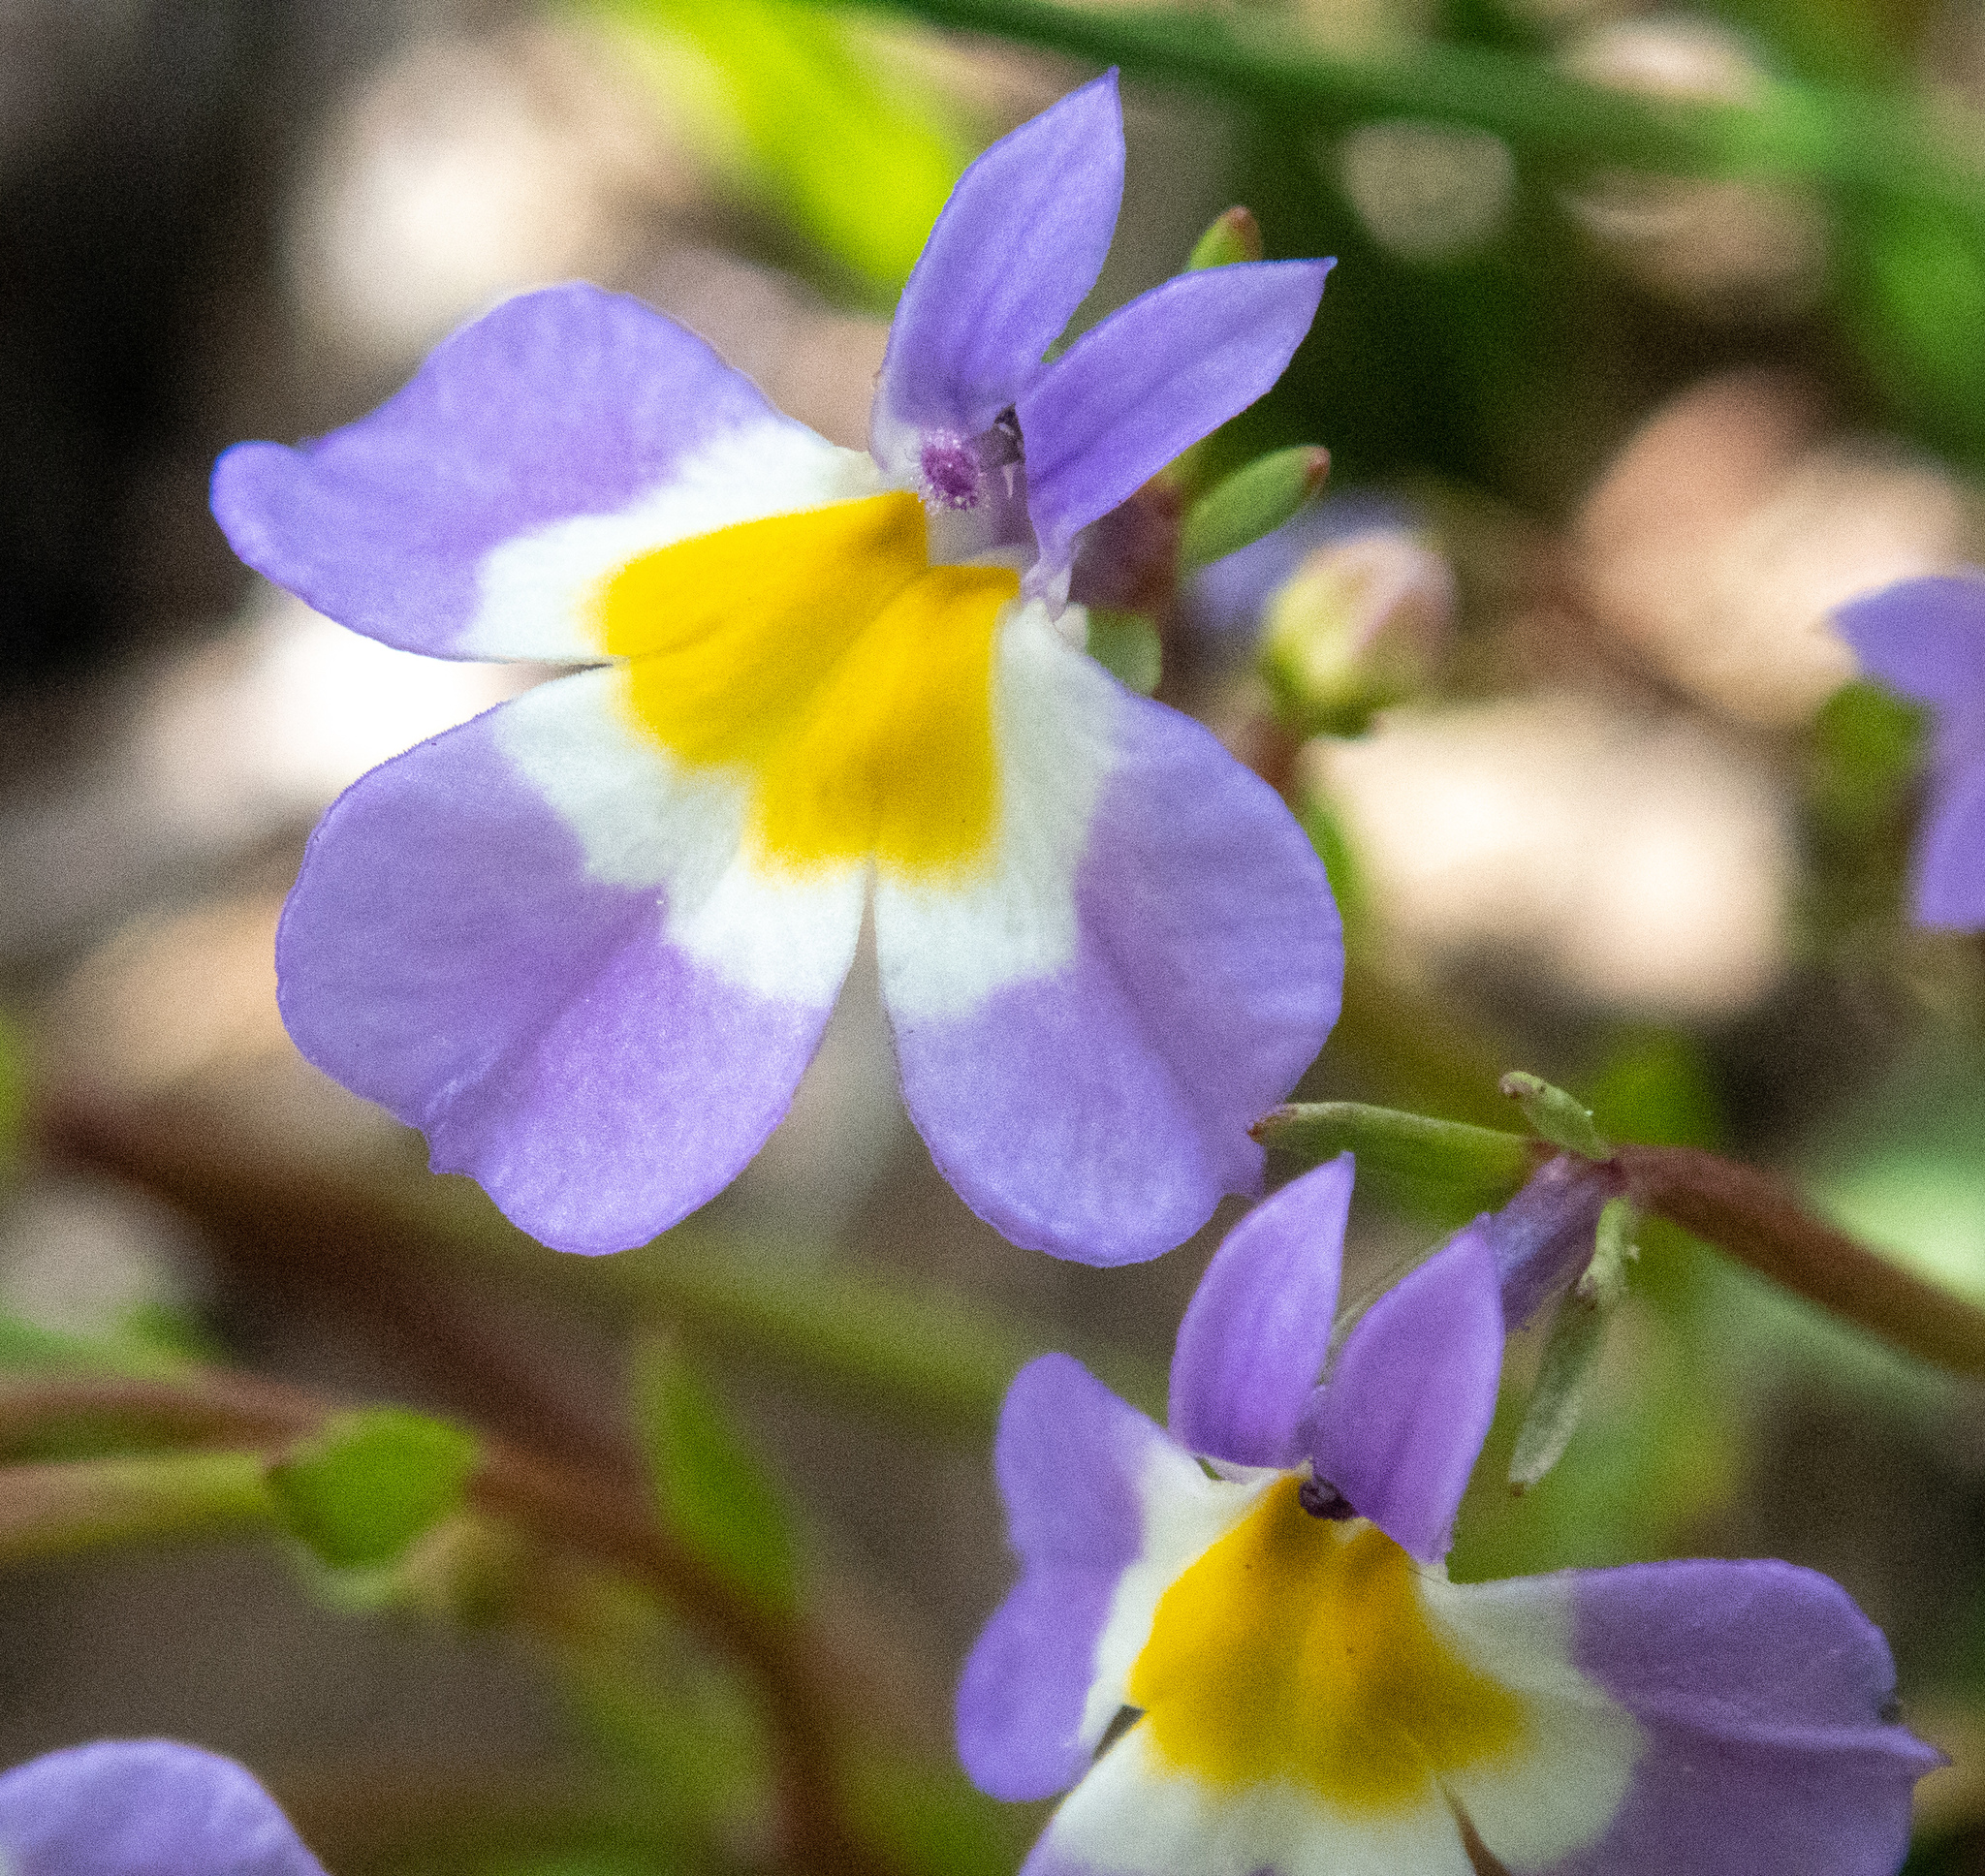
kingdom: Plantae
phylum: Tracheophyta
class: Magnoliopsida
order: Asterales
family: Campanulaceae
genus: Downingia
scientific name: Downingia cuspidata
